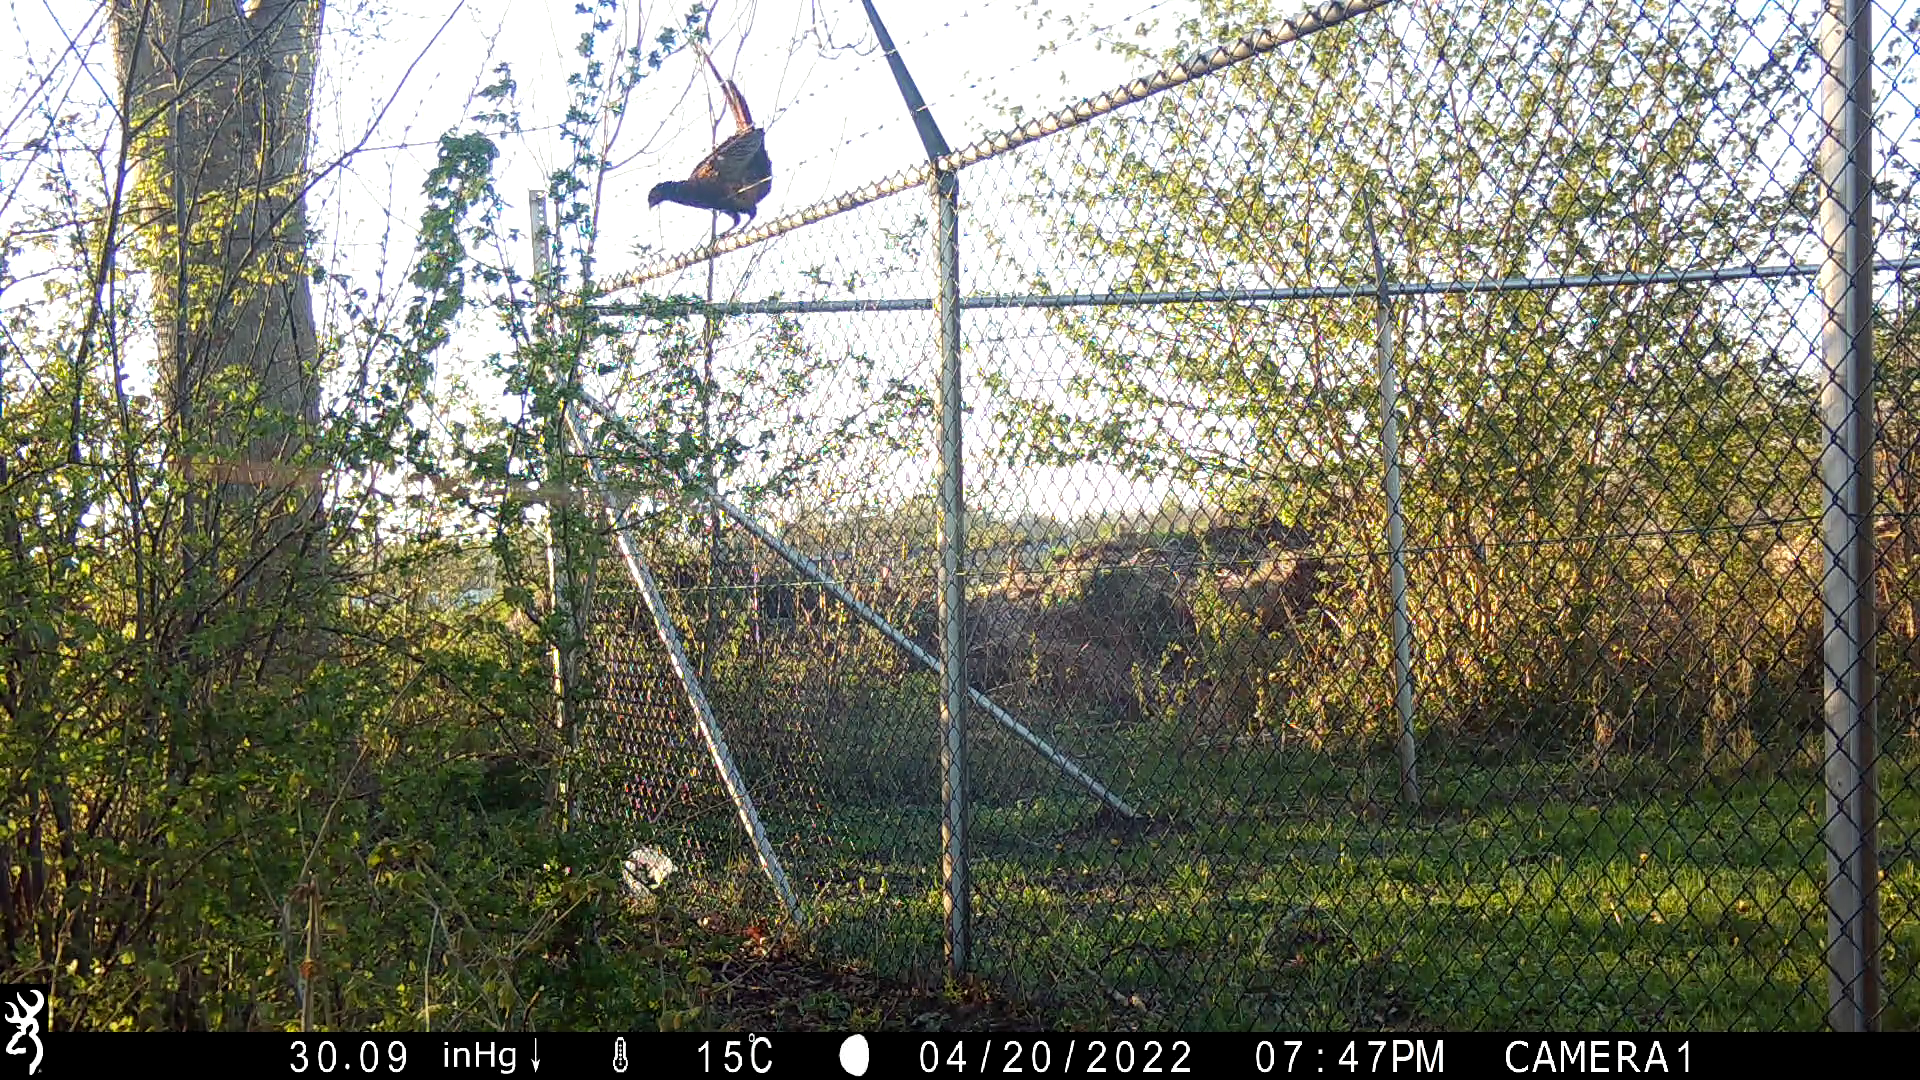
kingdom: Animalia
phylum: Chordata
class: Aves
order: Galliformes
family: Phasianidae
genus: Phasianus
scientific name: Phasianus colchicus
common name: Common pheasant
